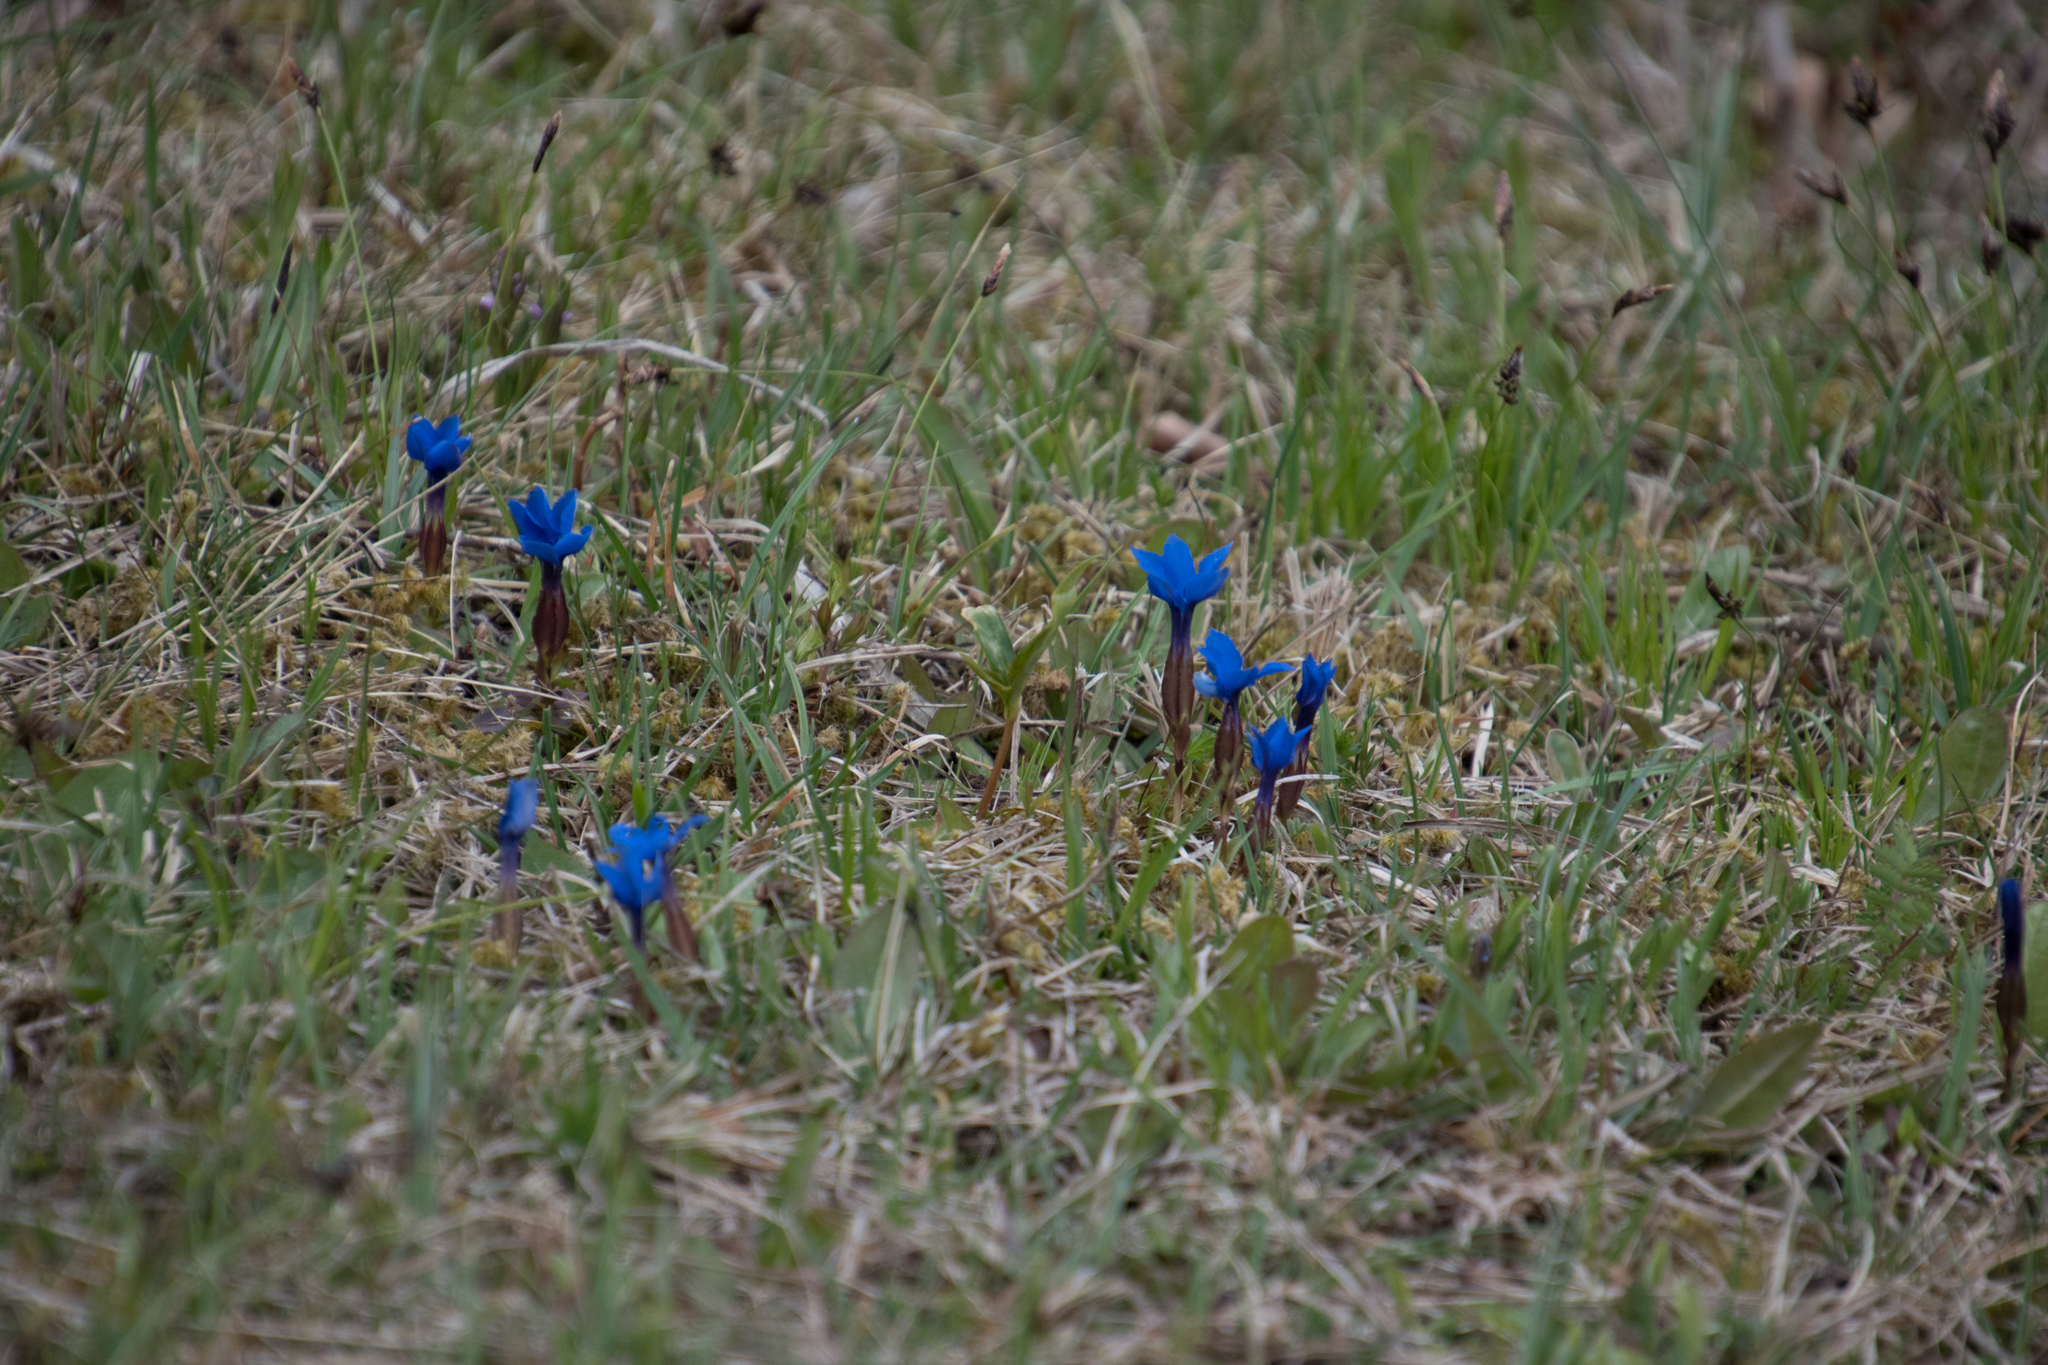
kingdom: Plantae
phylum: Tracheophyta
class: Magnoliopsida
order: Gentianales
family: Gentianaceae
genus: Gentiana
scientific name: Gentiana verna
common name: Spring gentian
